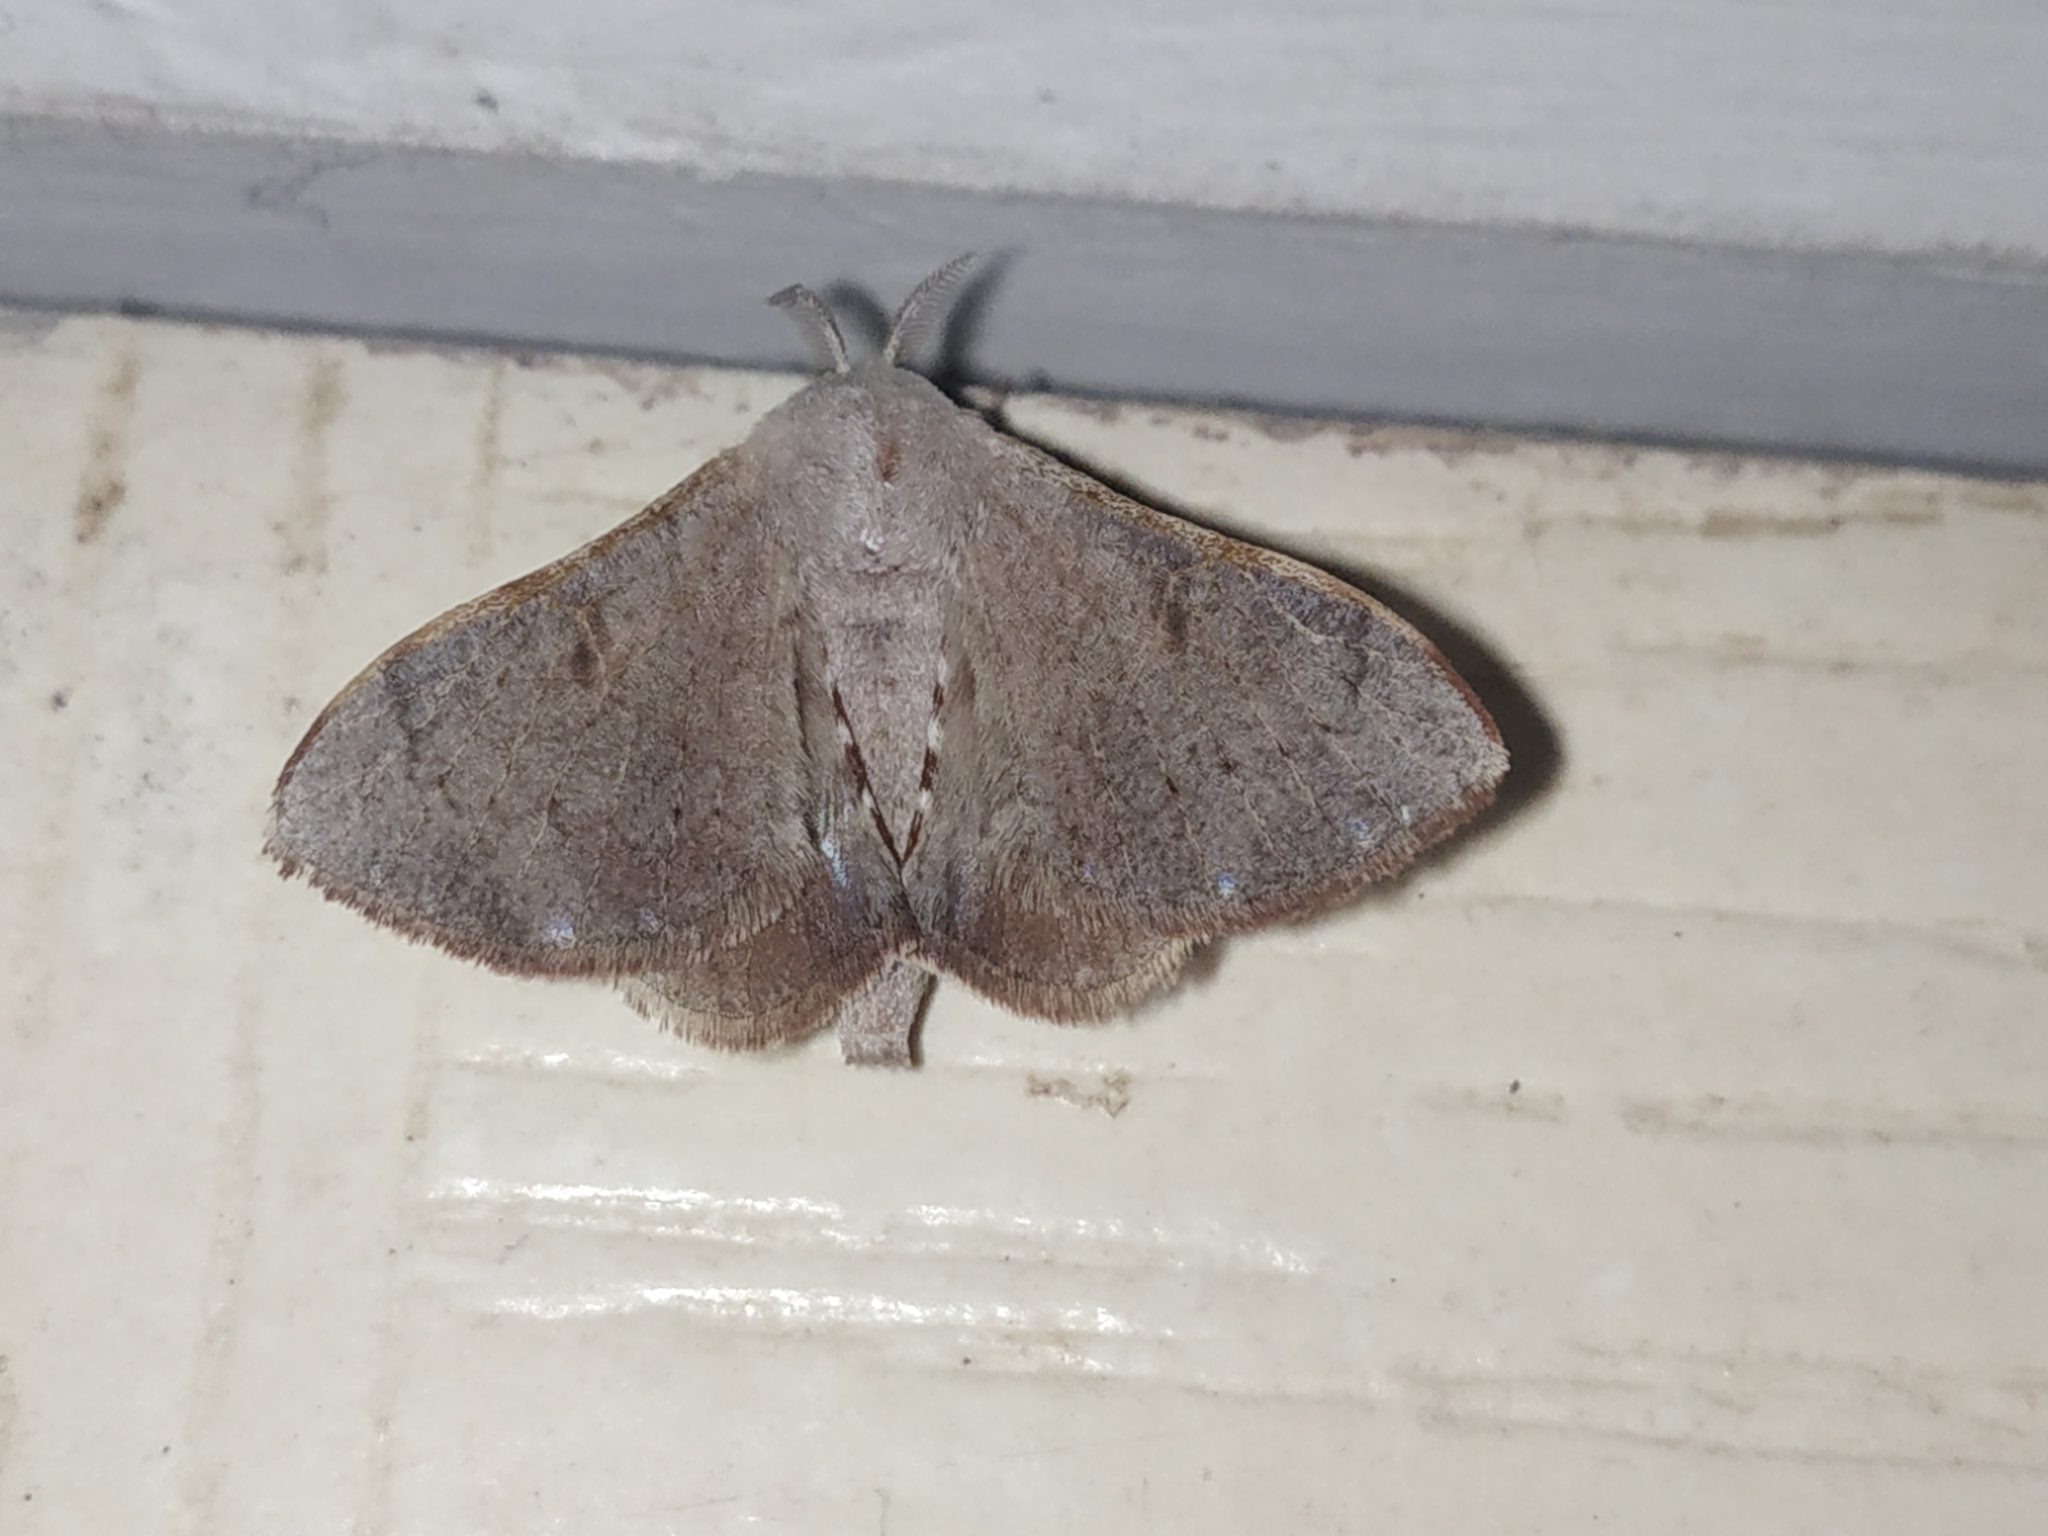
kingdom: Animalia
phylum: Arthropoda
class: Insecta
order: Lepidoptera
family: Bombycidae
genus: Trilocha
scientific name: Trilocha varians
